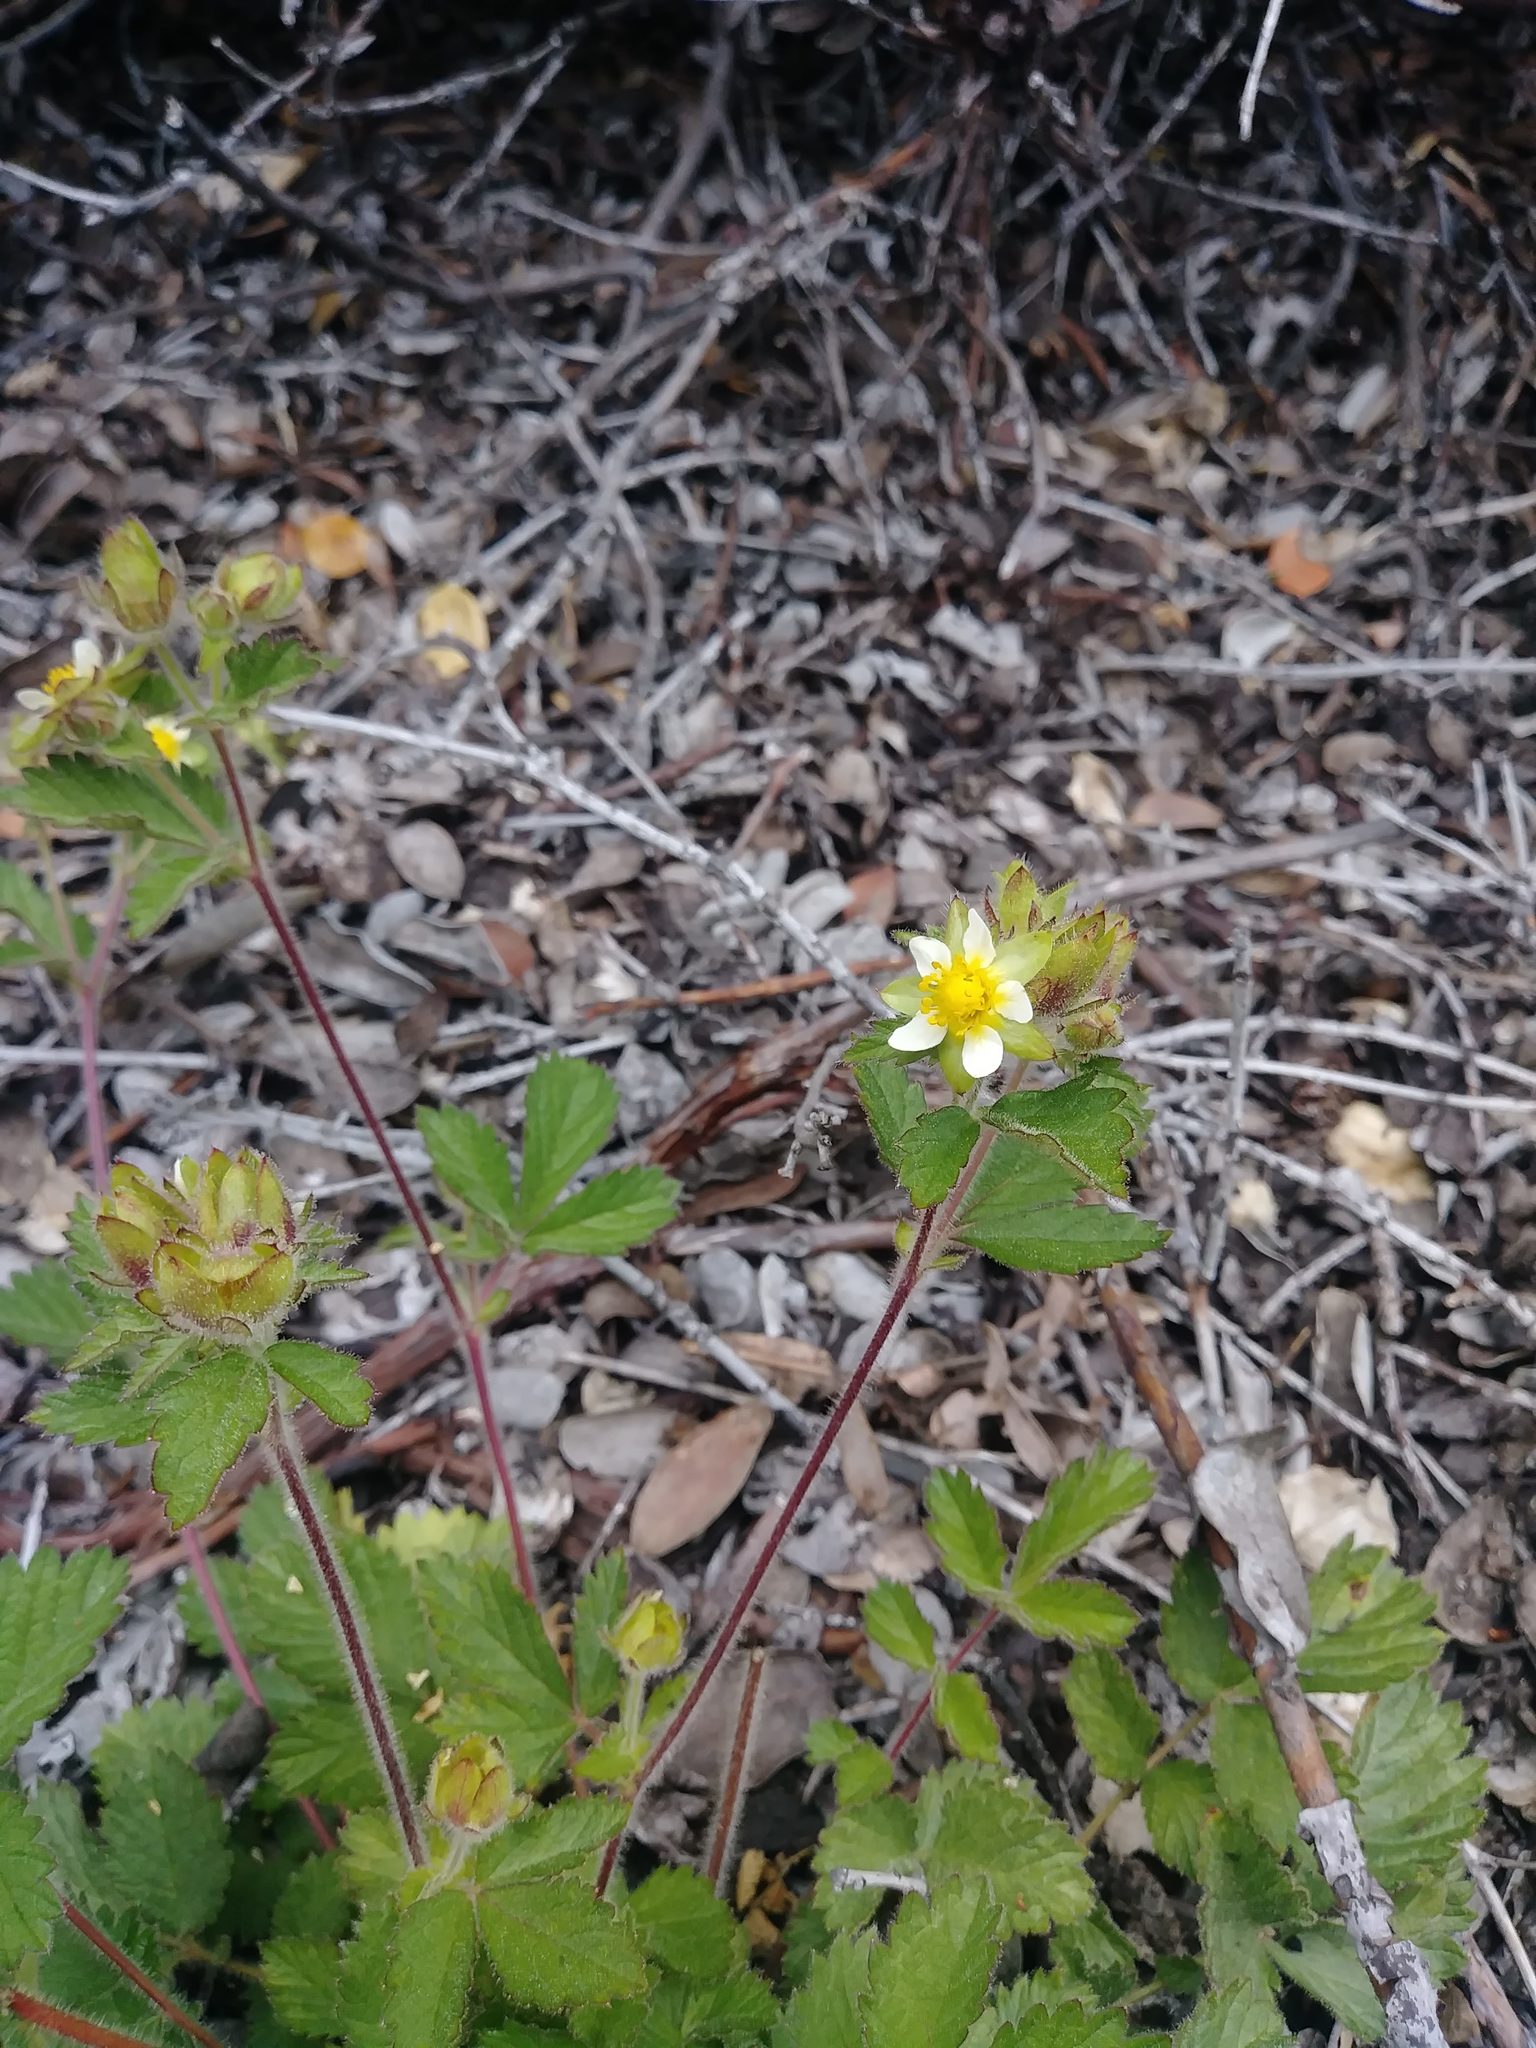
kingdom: Plantae
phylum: Tracheophyta
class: Magnoliopsida
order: Rosales
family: Rosaceae
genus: Drymocallis
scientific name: Drymocallis glandulosa
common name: Sticky cinquefoil
